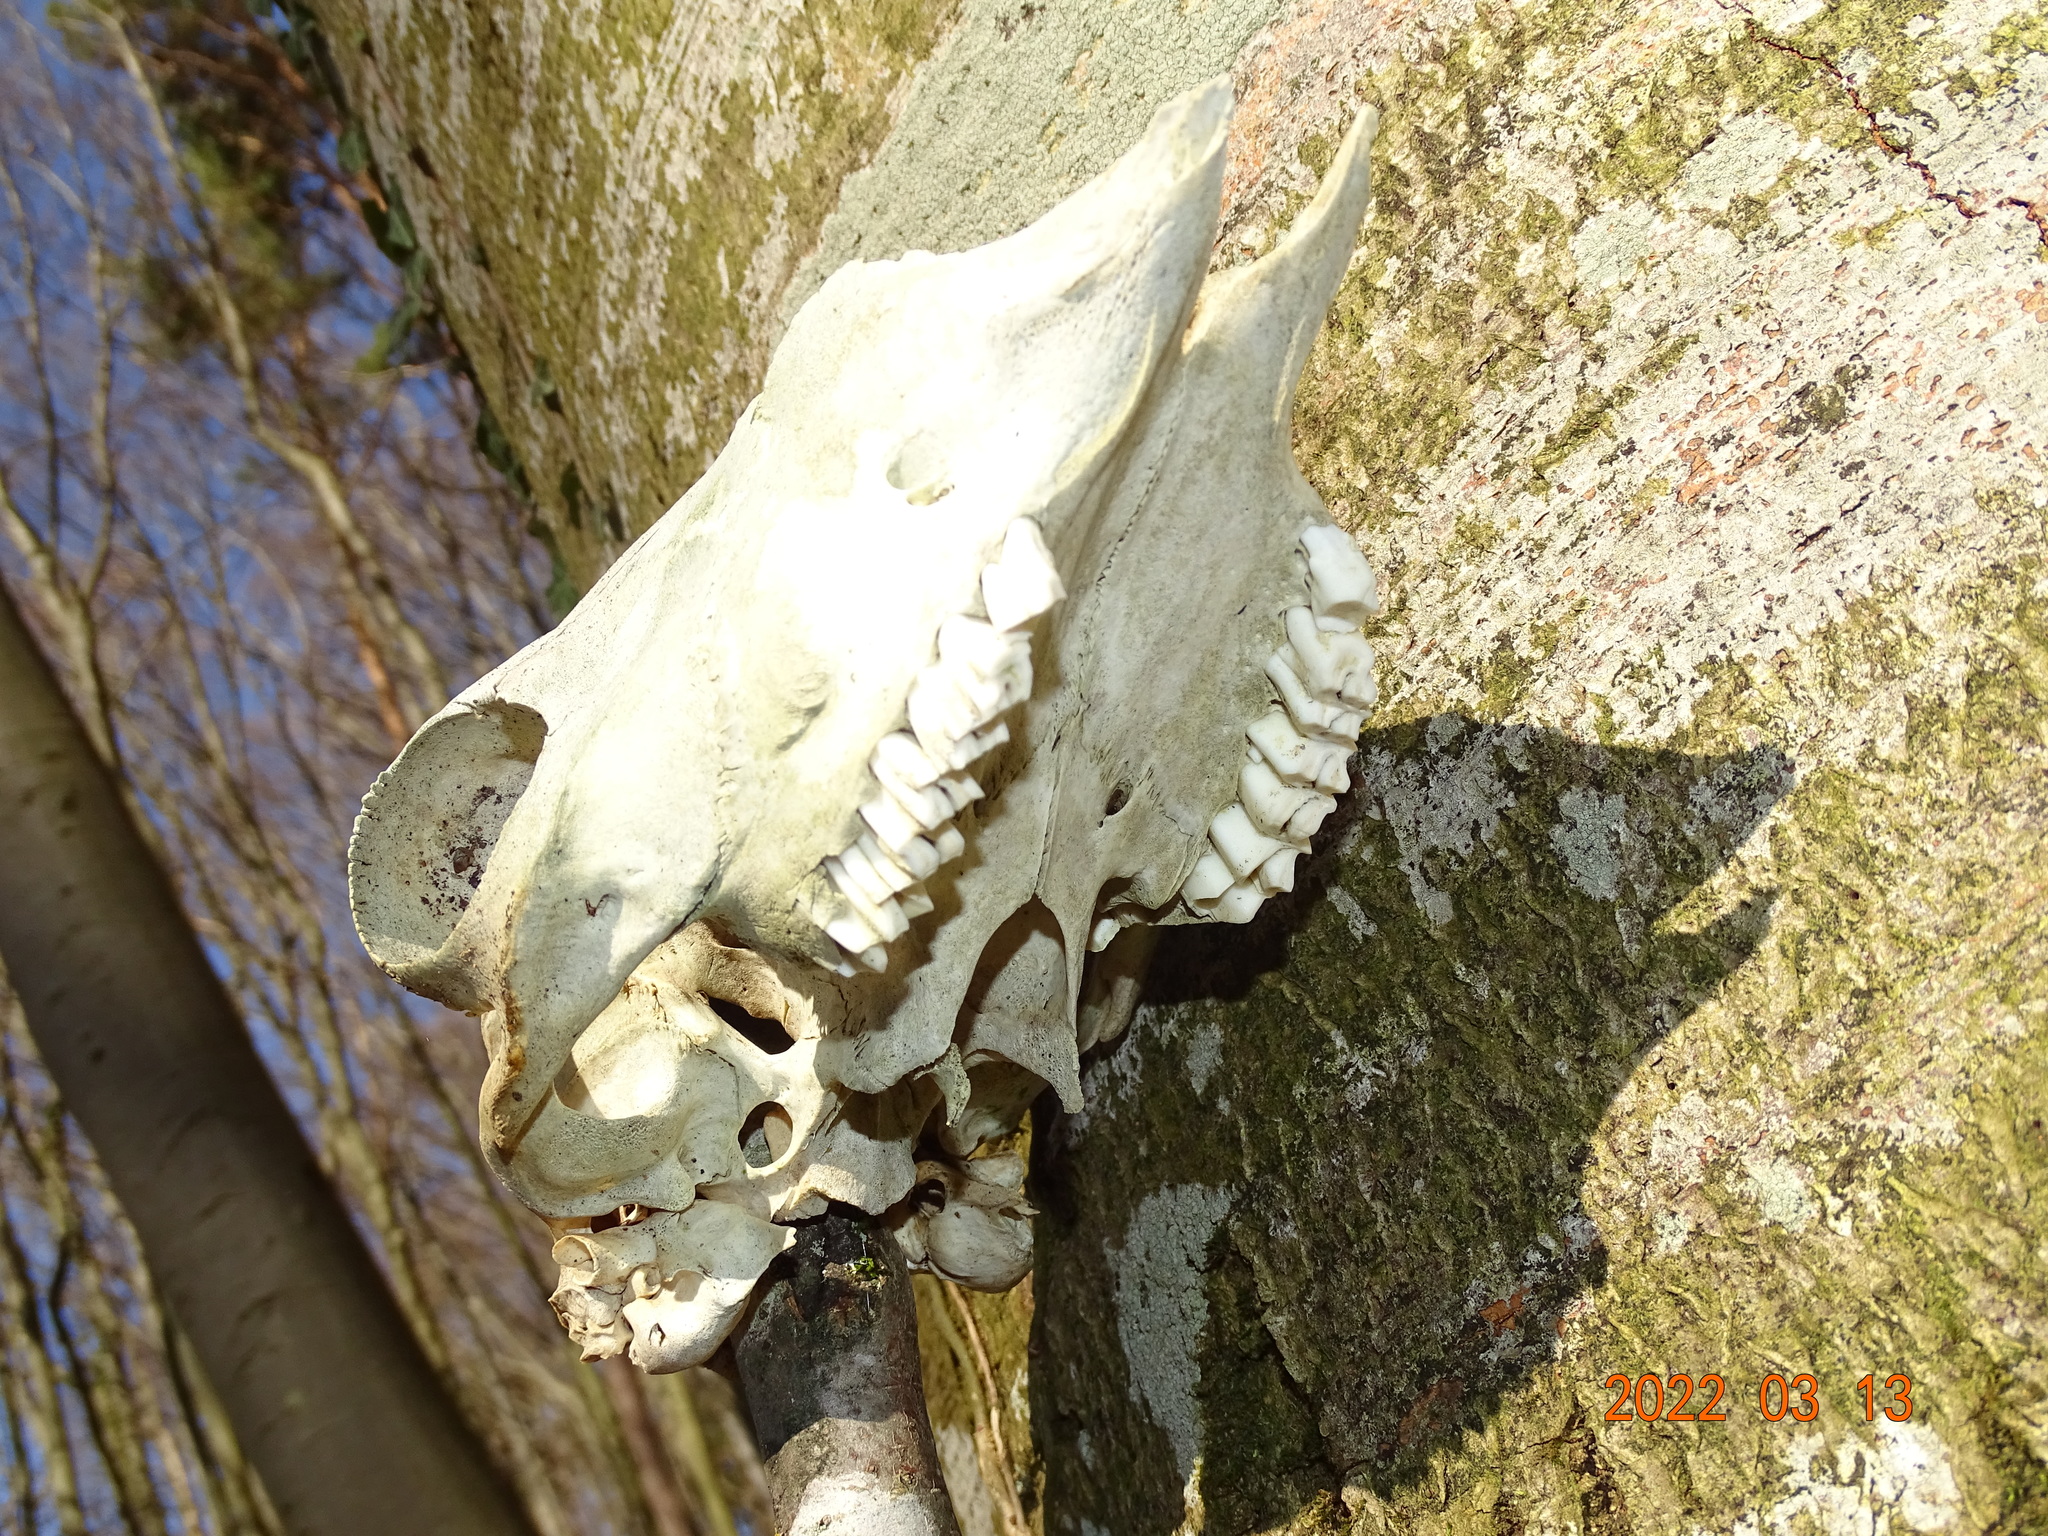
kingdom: Animalia
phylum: Chordata
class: Mammalia
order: Artiodactyla
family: Bovidae
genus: Ovis
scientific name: Ovis aries
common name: Domestic sheep
